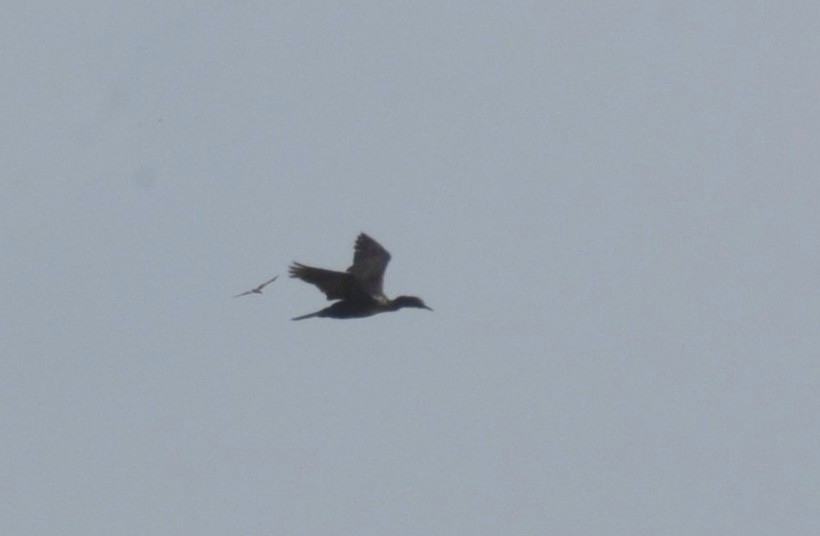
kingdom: Animalia
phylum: Chordata
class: Aves
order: Suliformes
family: Phalacrocoracidae
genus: Phalacrocorax
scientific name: Phalacrocorax fuscicollis
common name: Indian cormorant
